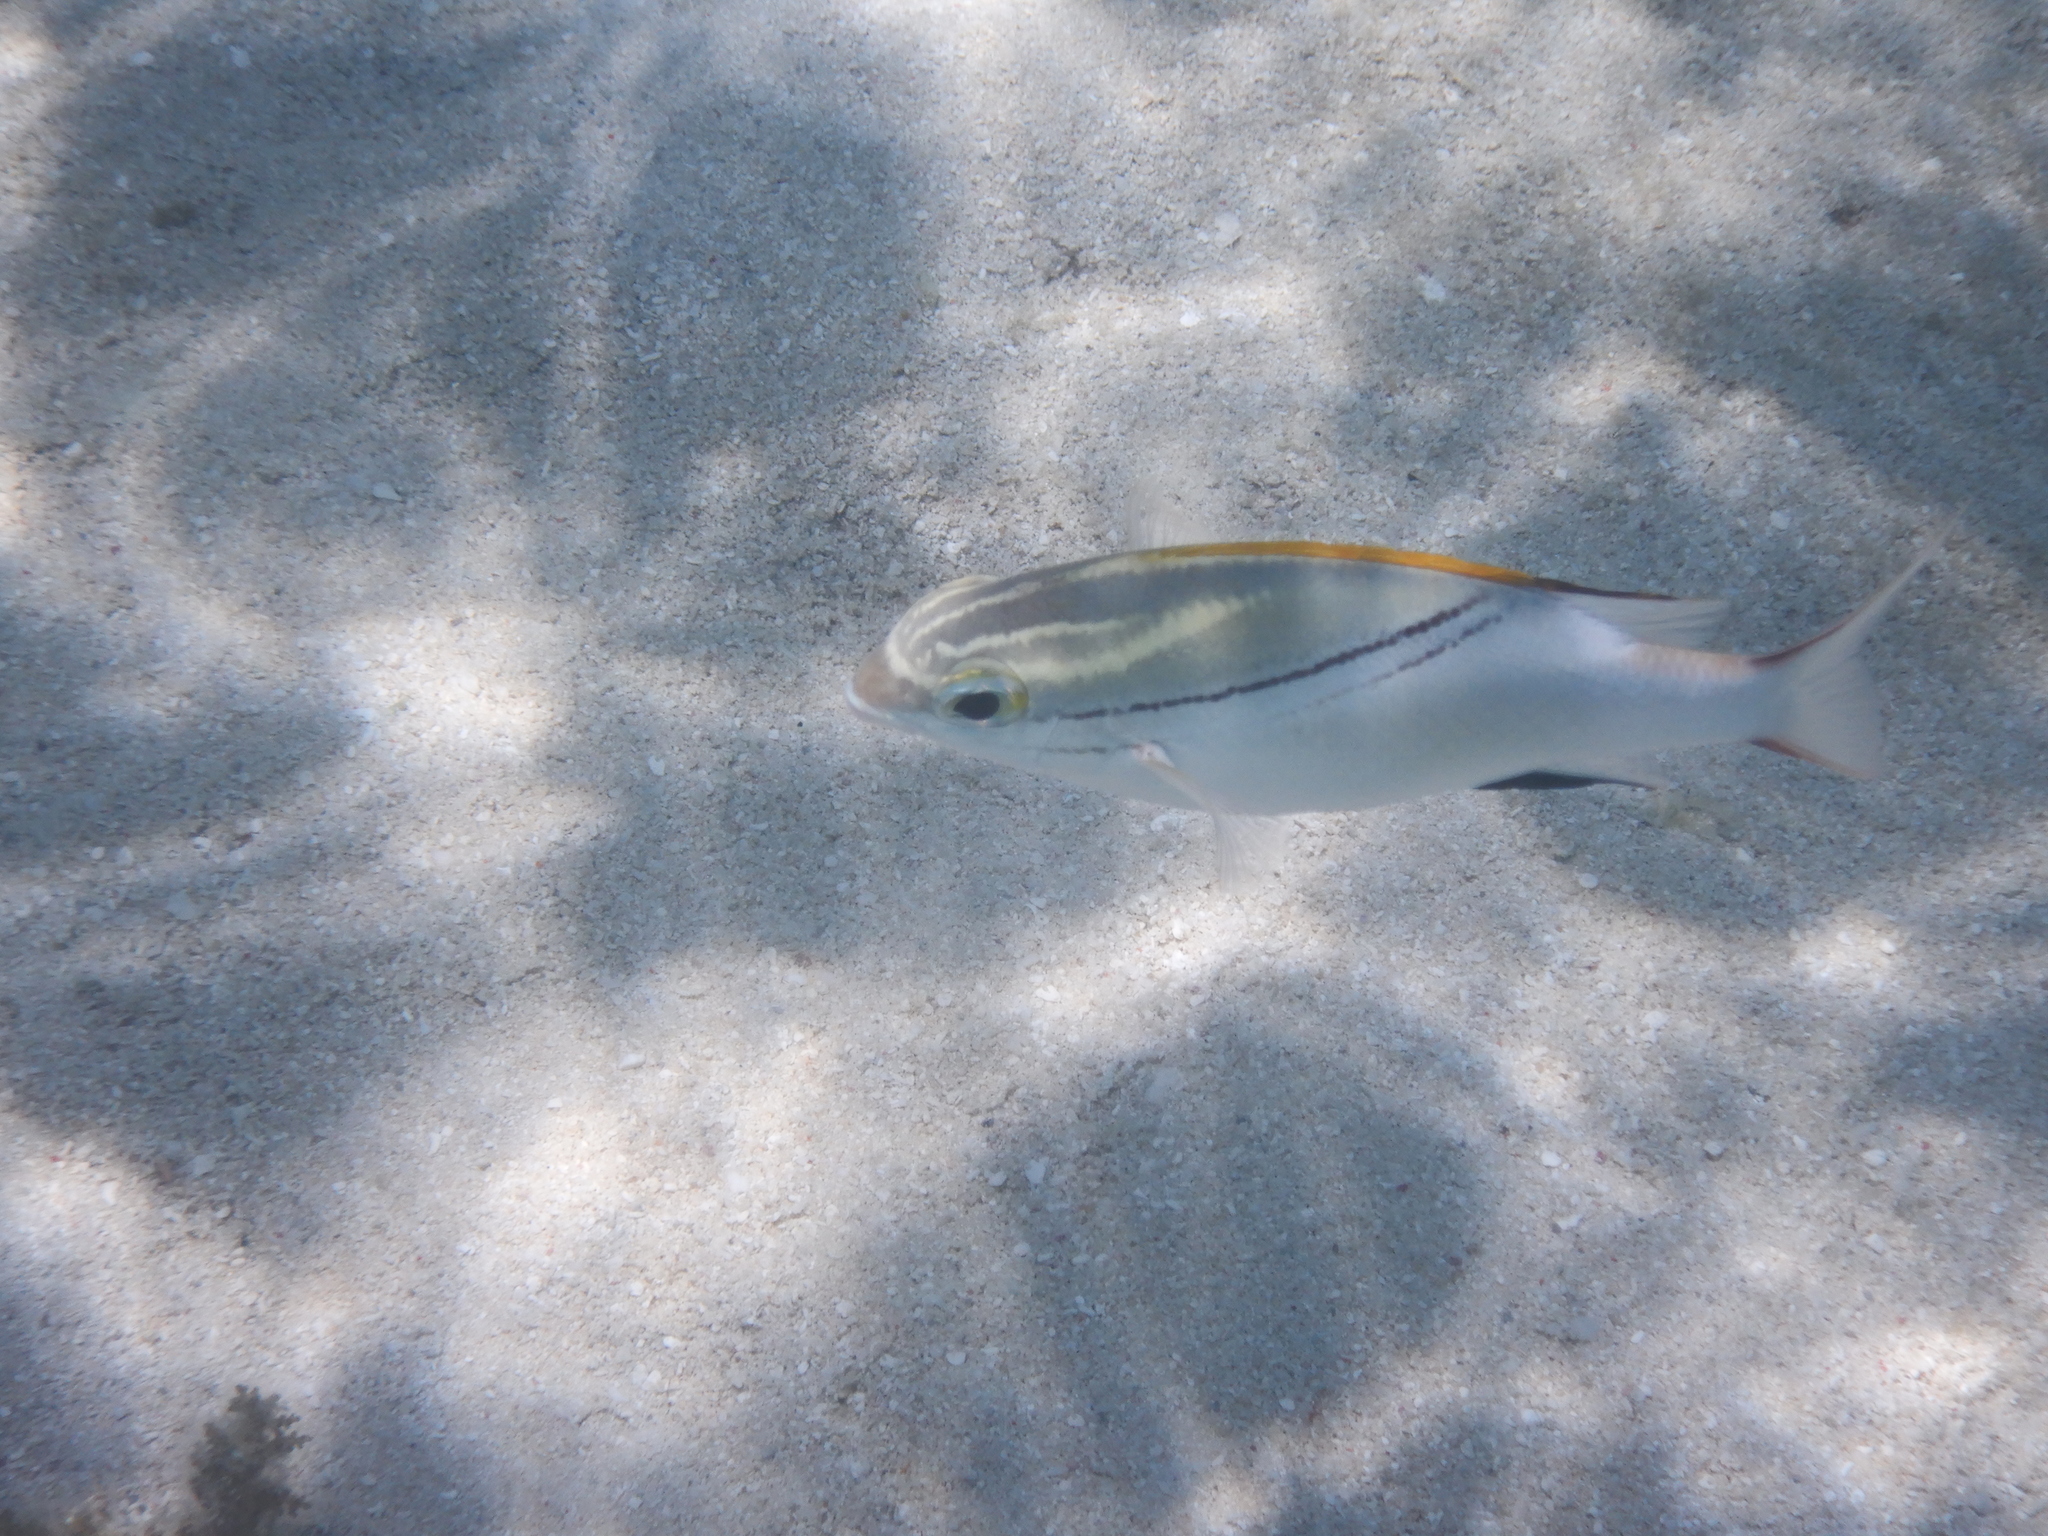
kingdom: Animalia
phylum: Chordata
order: Perciformes
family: Nemipteridae
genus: Scolopsis
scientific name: Scolopsis bilineata
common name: Two-lined monocle bream
